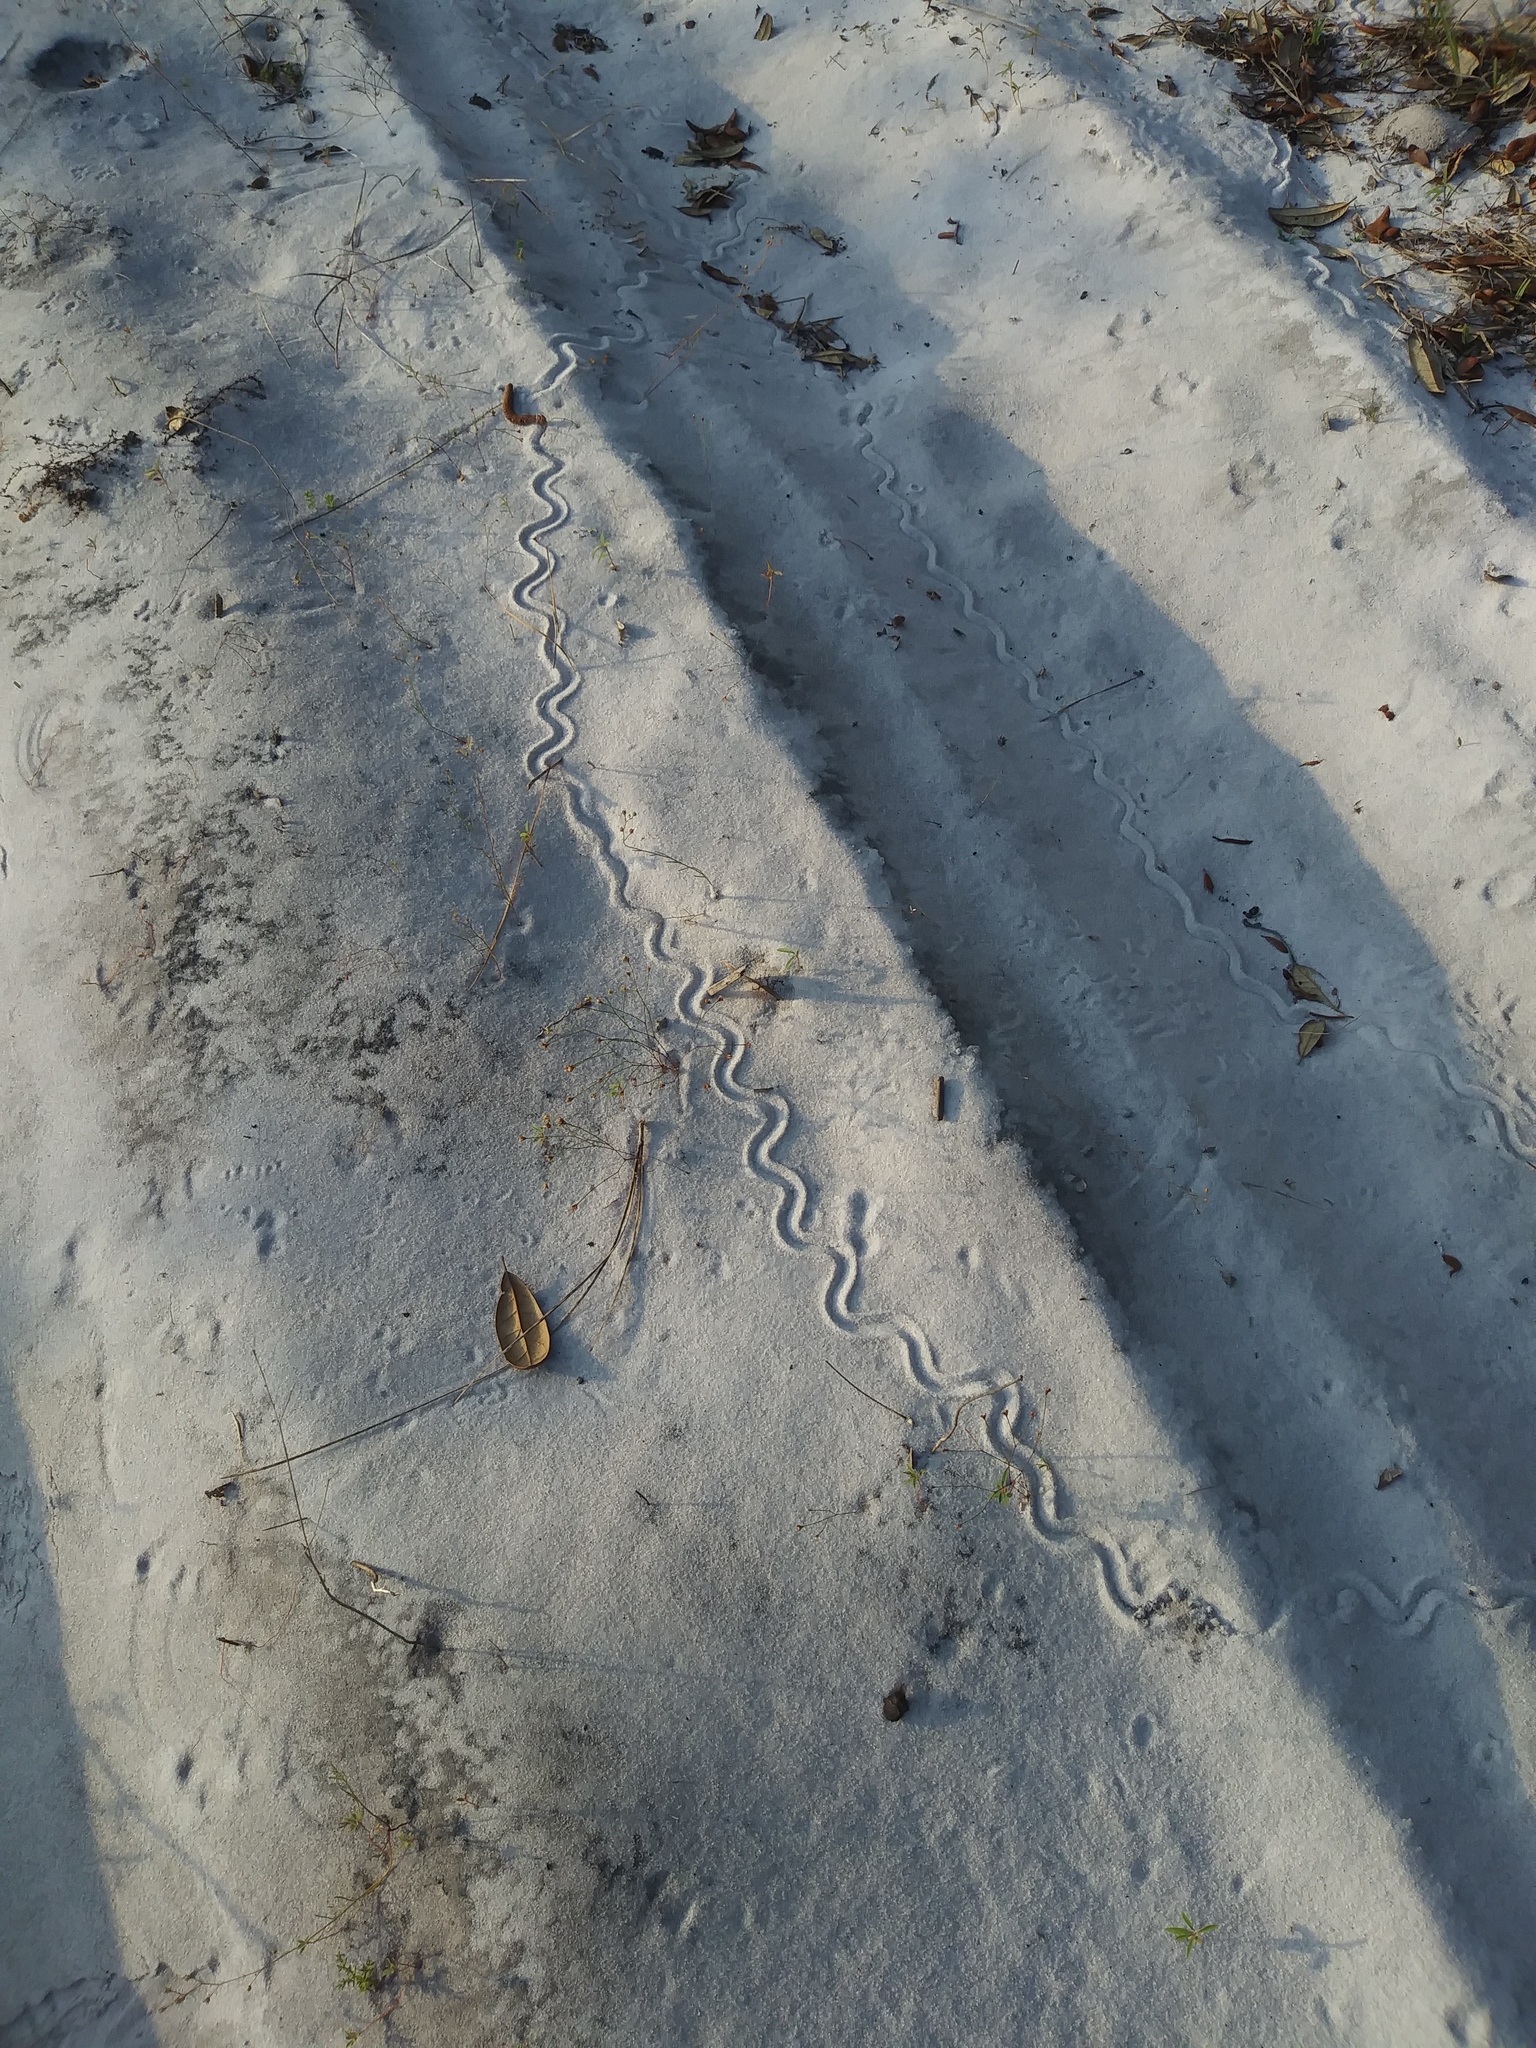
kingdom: Animalia
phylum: Chordata
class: Squamata
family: Scincidae
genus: Plestiodon
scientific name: Plestiodon reynoldsi
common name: Florida sand skink
